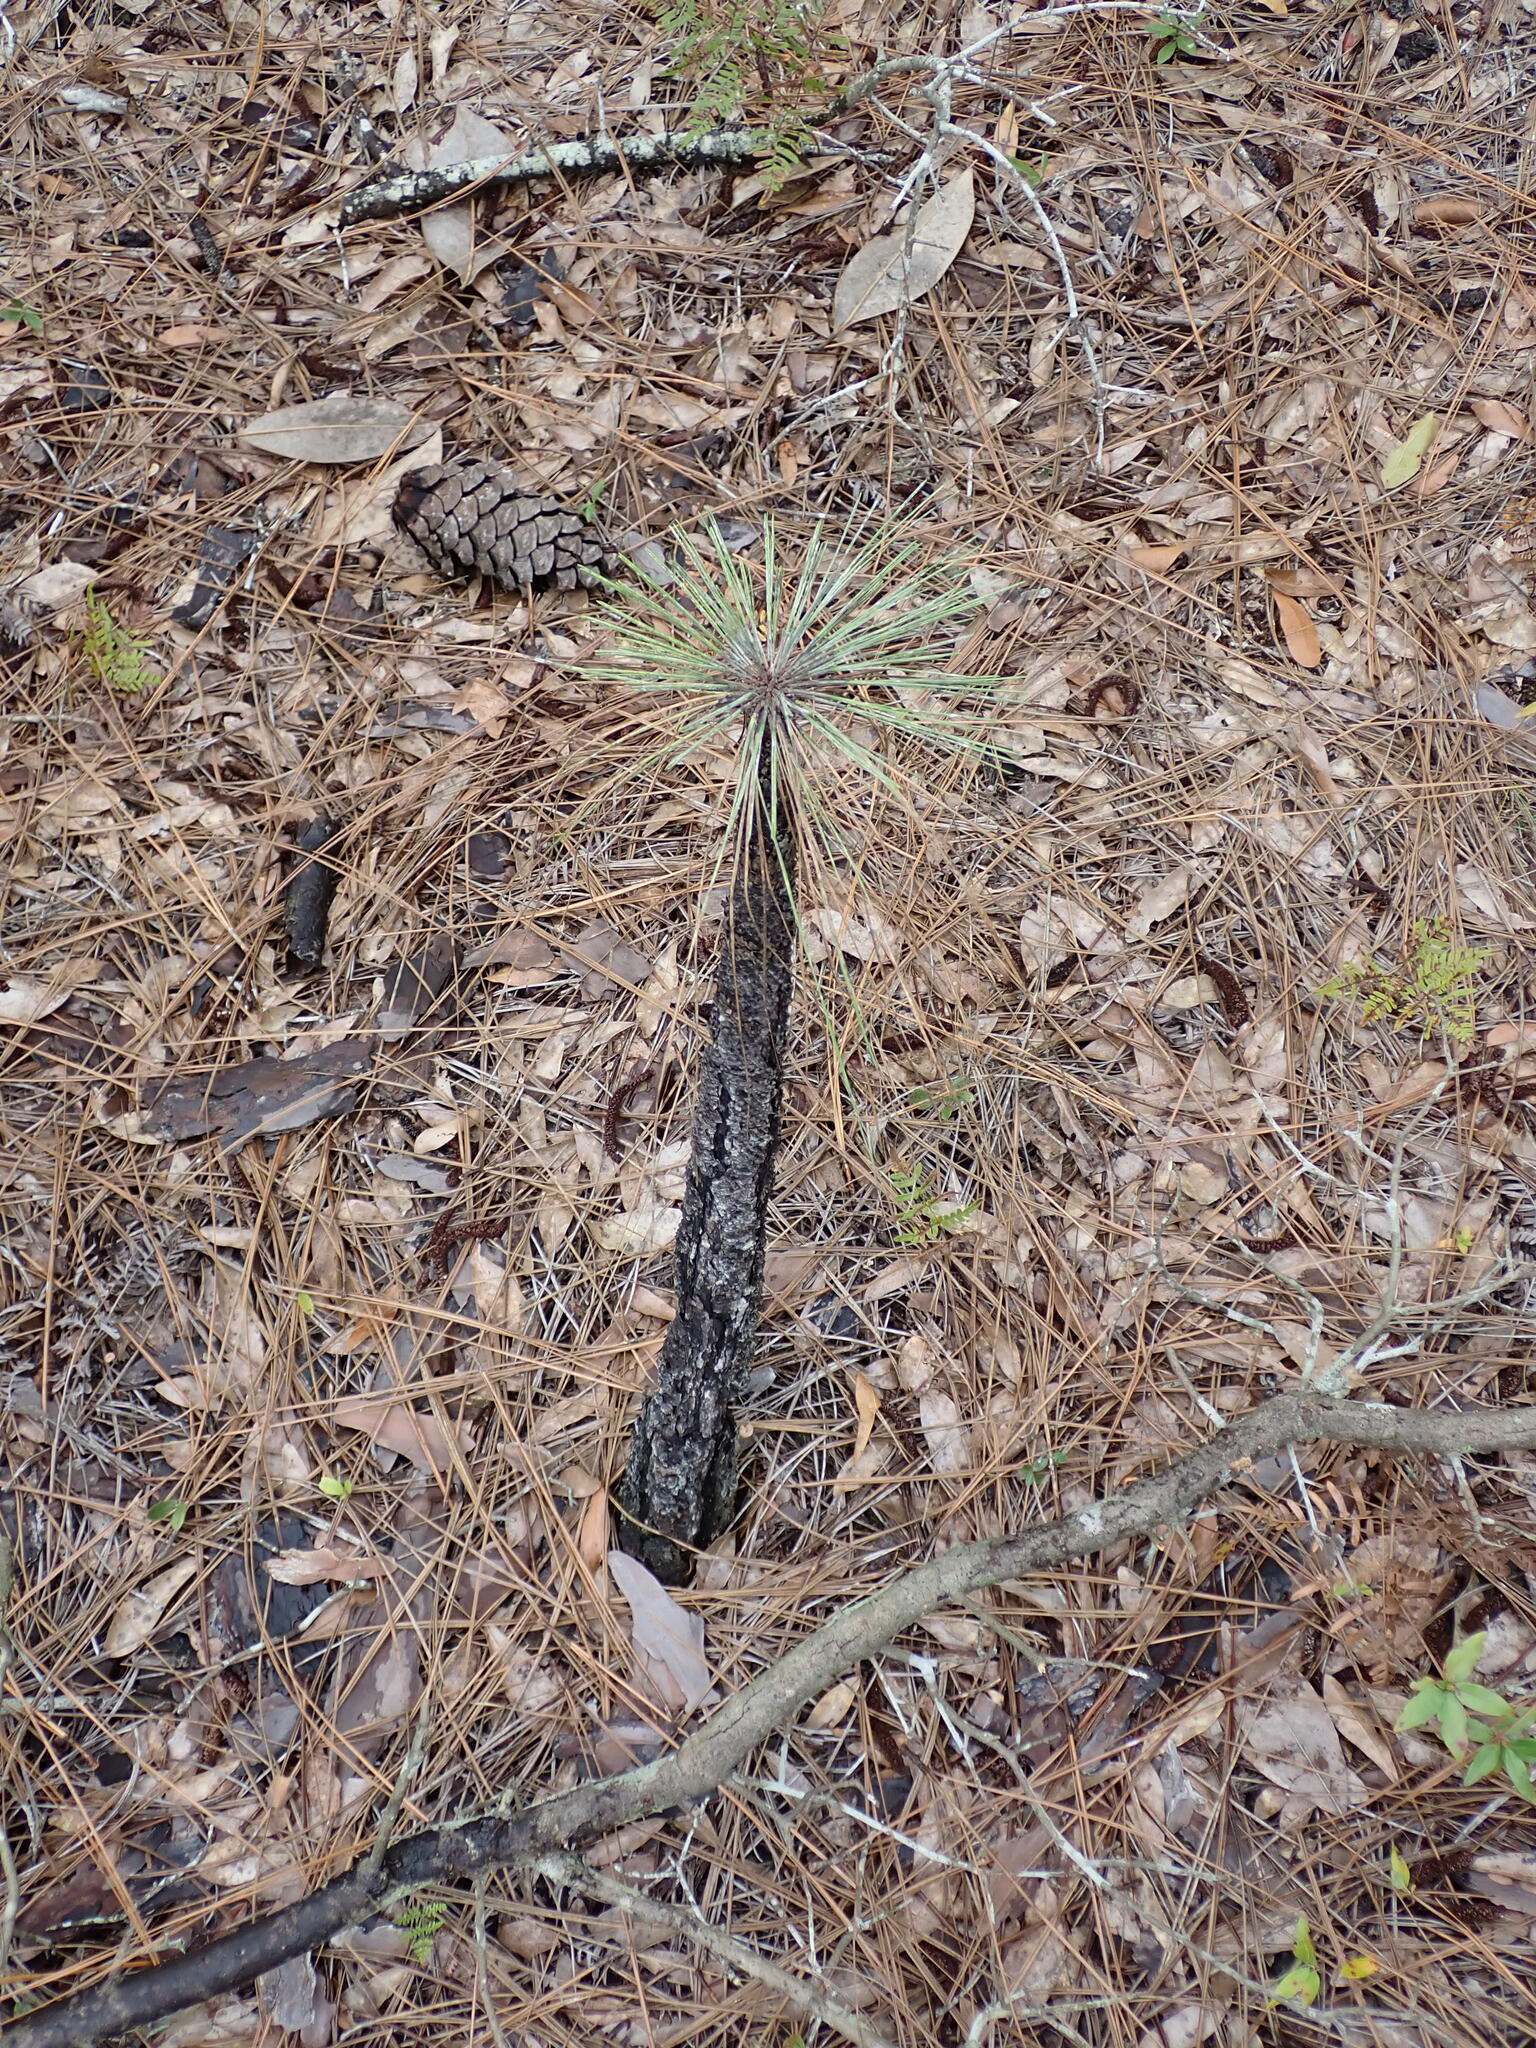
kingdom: Plantae
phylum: Tracheophyta
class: Pinopsida
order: Pinales
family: Pinaceae
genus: Pinus
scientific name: Pinus palustris
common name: Longleaf pine
